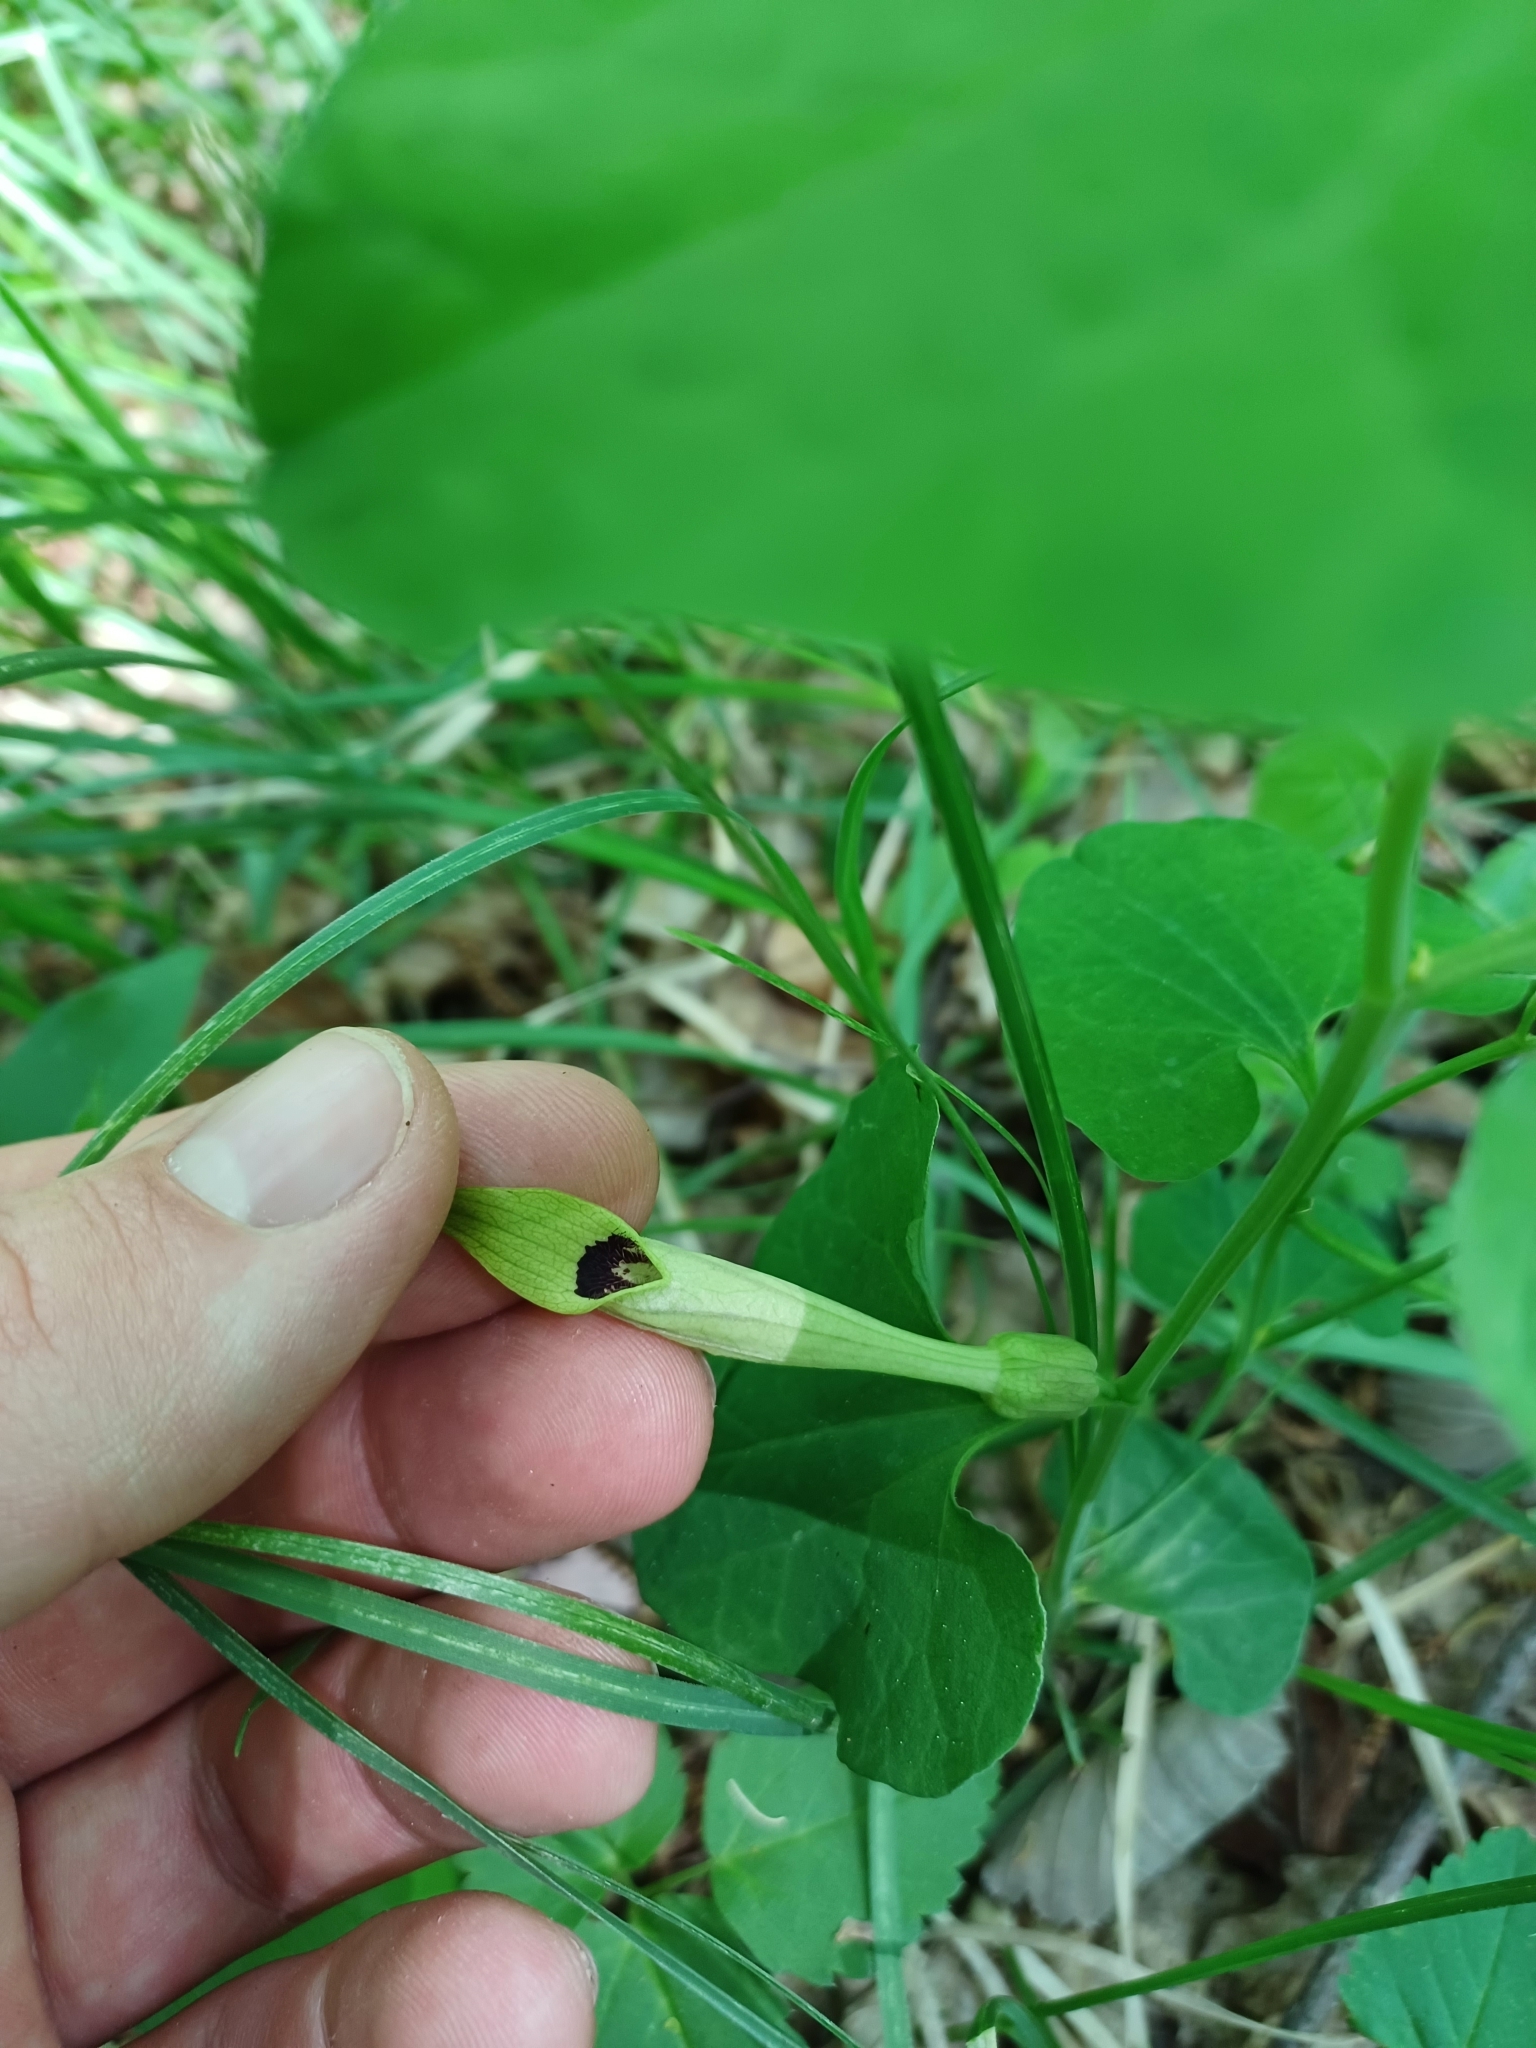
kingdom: Plantae
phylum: Tracheophyta
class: Magnoliopsida
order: Piperales
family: Aristolochiaceae
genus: Aristolochia
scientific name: Aristolochia lutea
